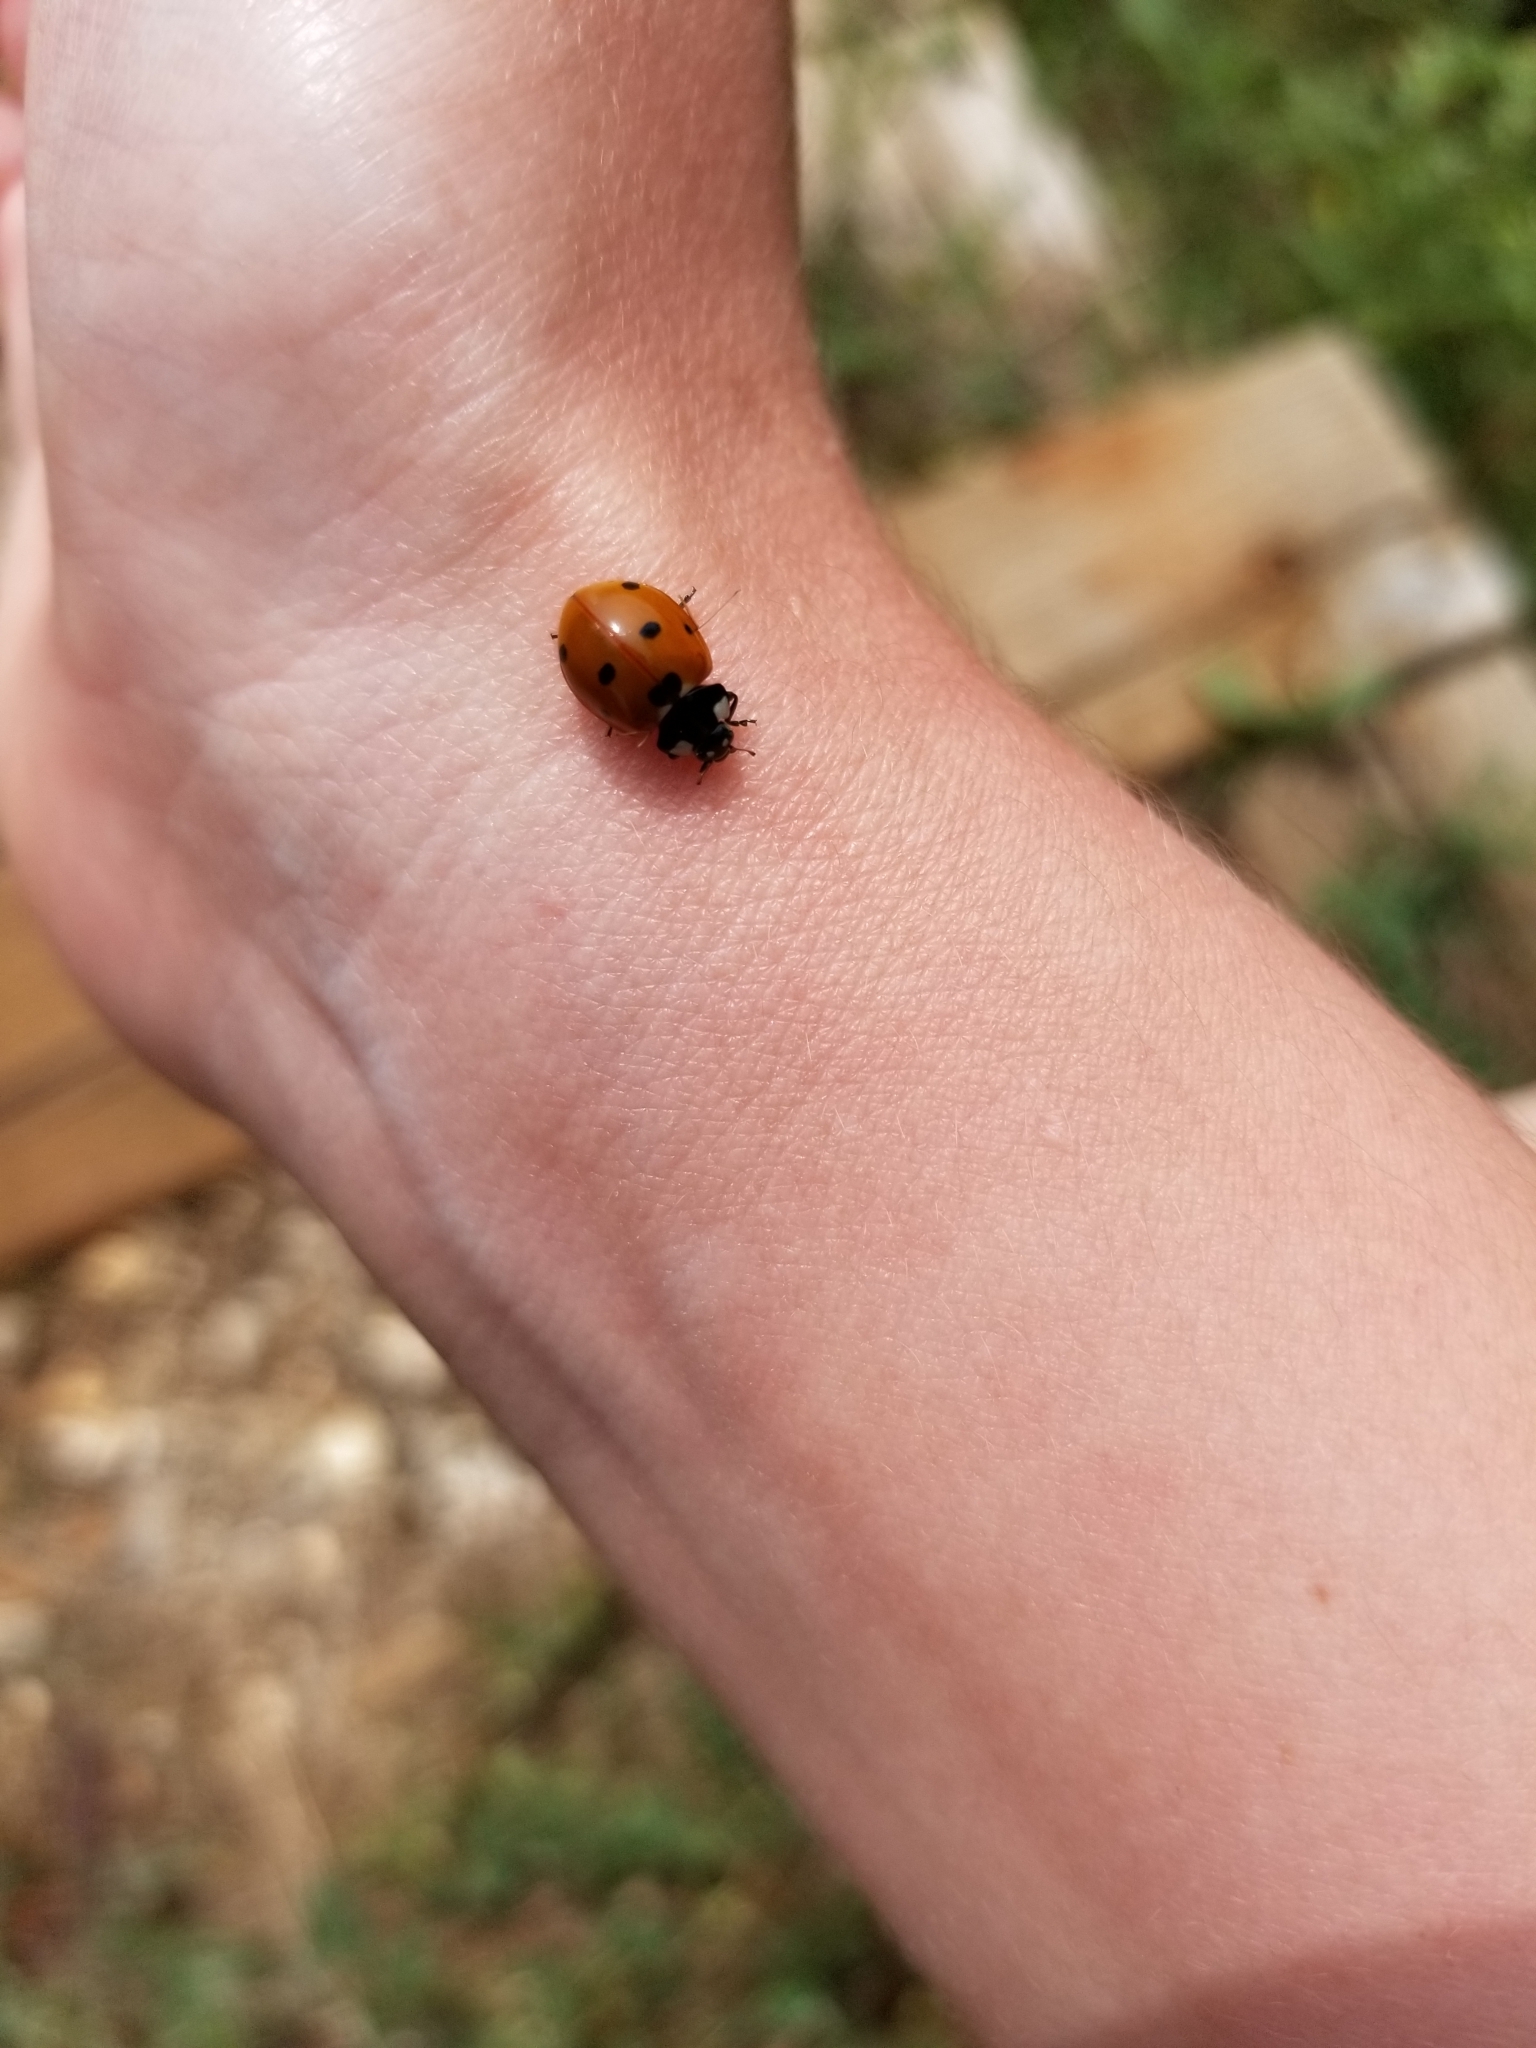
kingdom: Animalia
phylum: Arthropoda
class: Insecta
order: Coleoptera
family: Coccinellidae
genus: Coccinella
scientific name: Coccinella septempunctata
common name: Sevenspotted lady beetle
